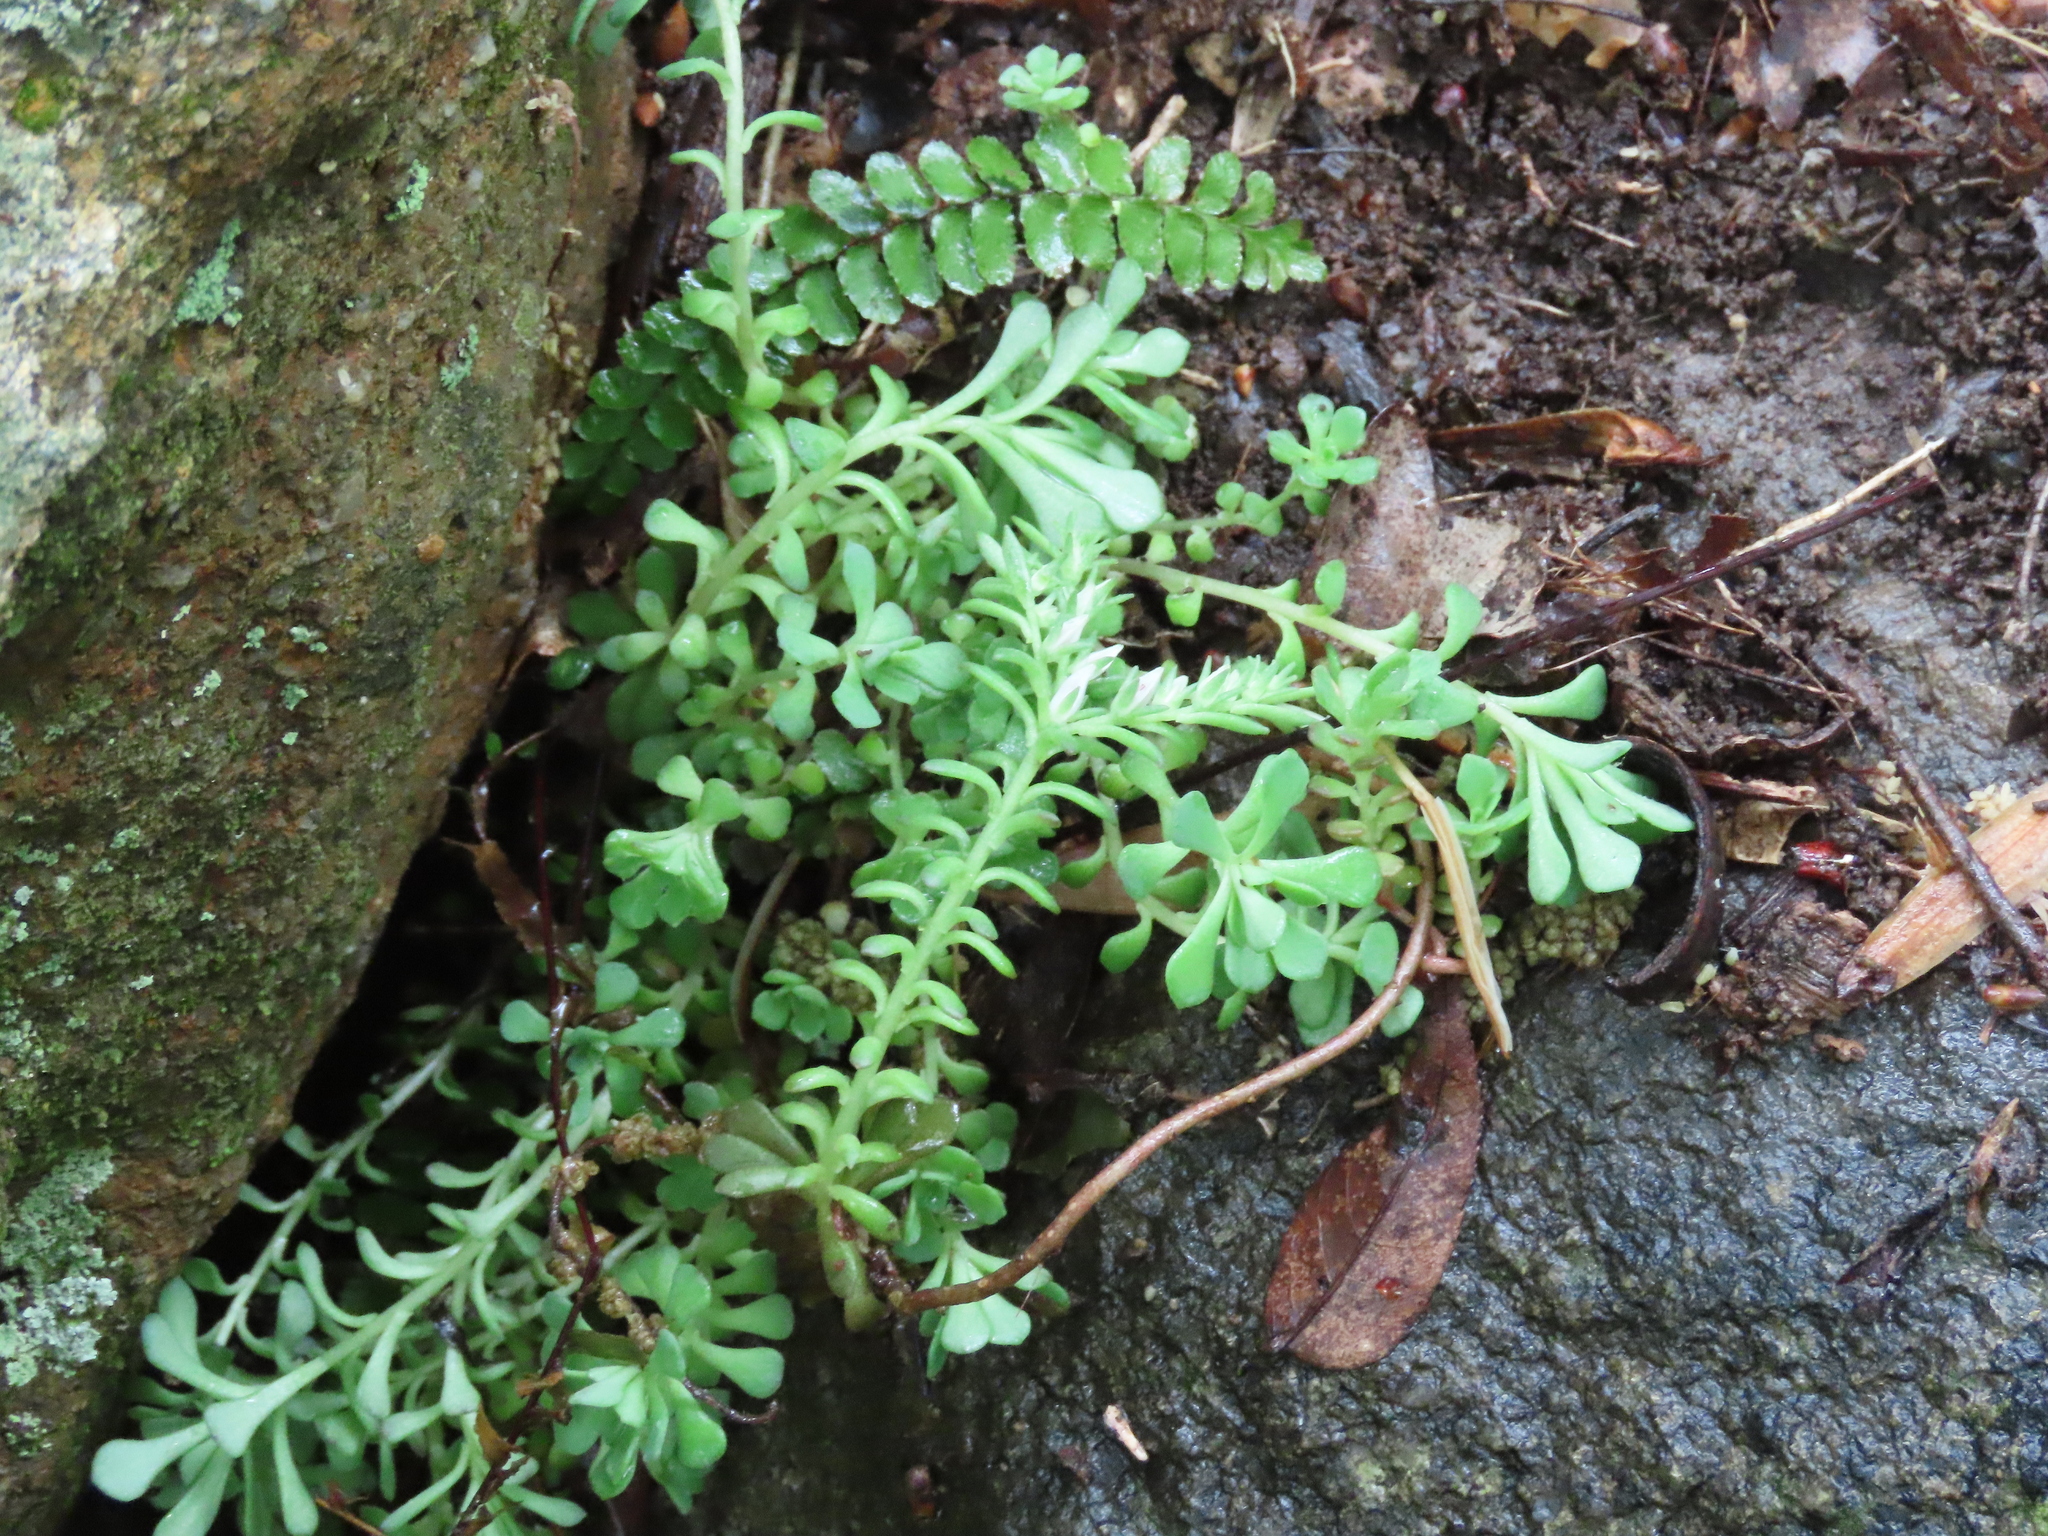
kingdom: Plantae
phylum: Tracheophyta
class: Magnoliopsida
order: Saxifragales
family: Crassulaceae
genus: Sedum
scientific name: Sedum glaucophyllum
